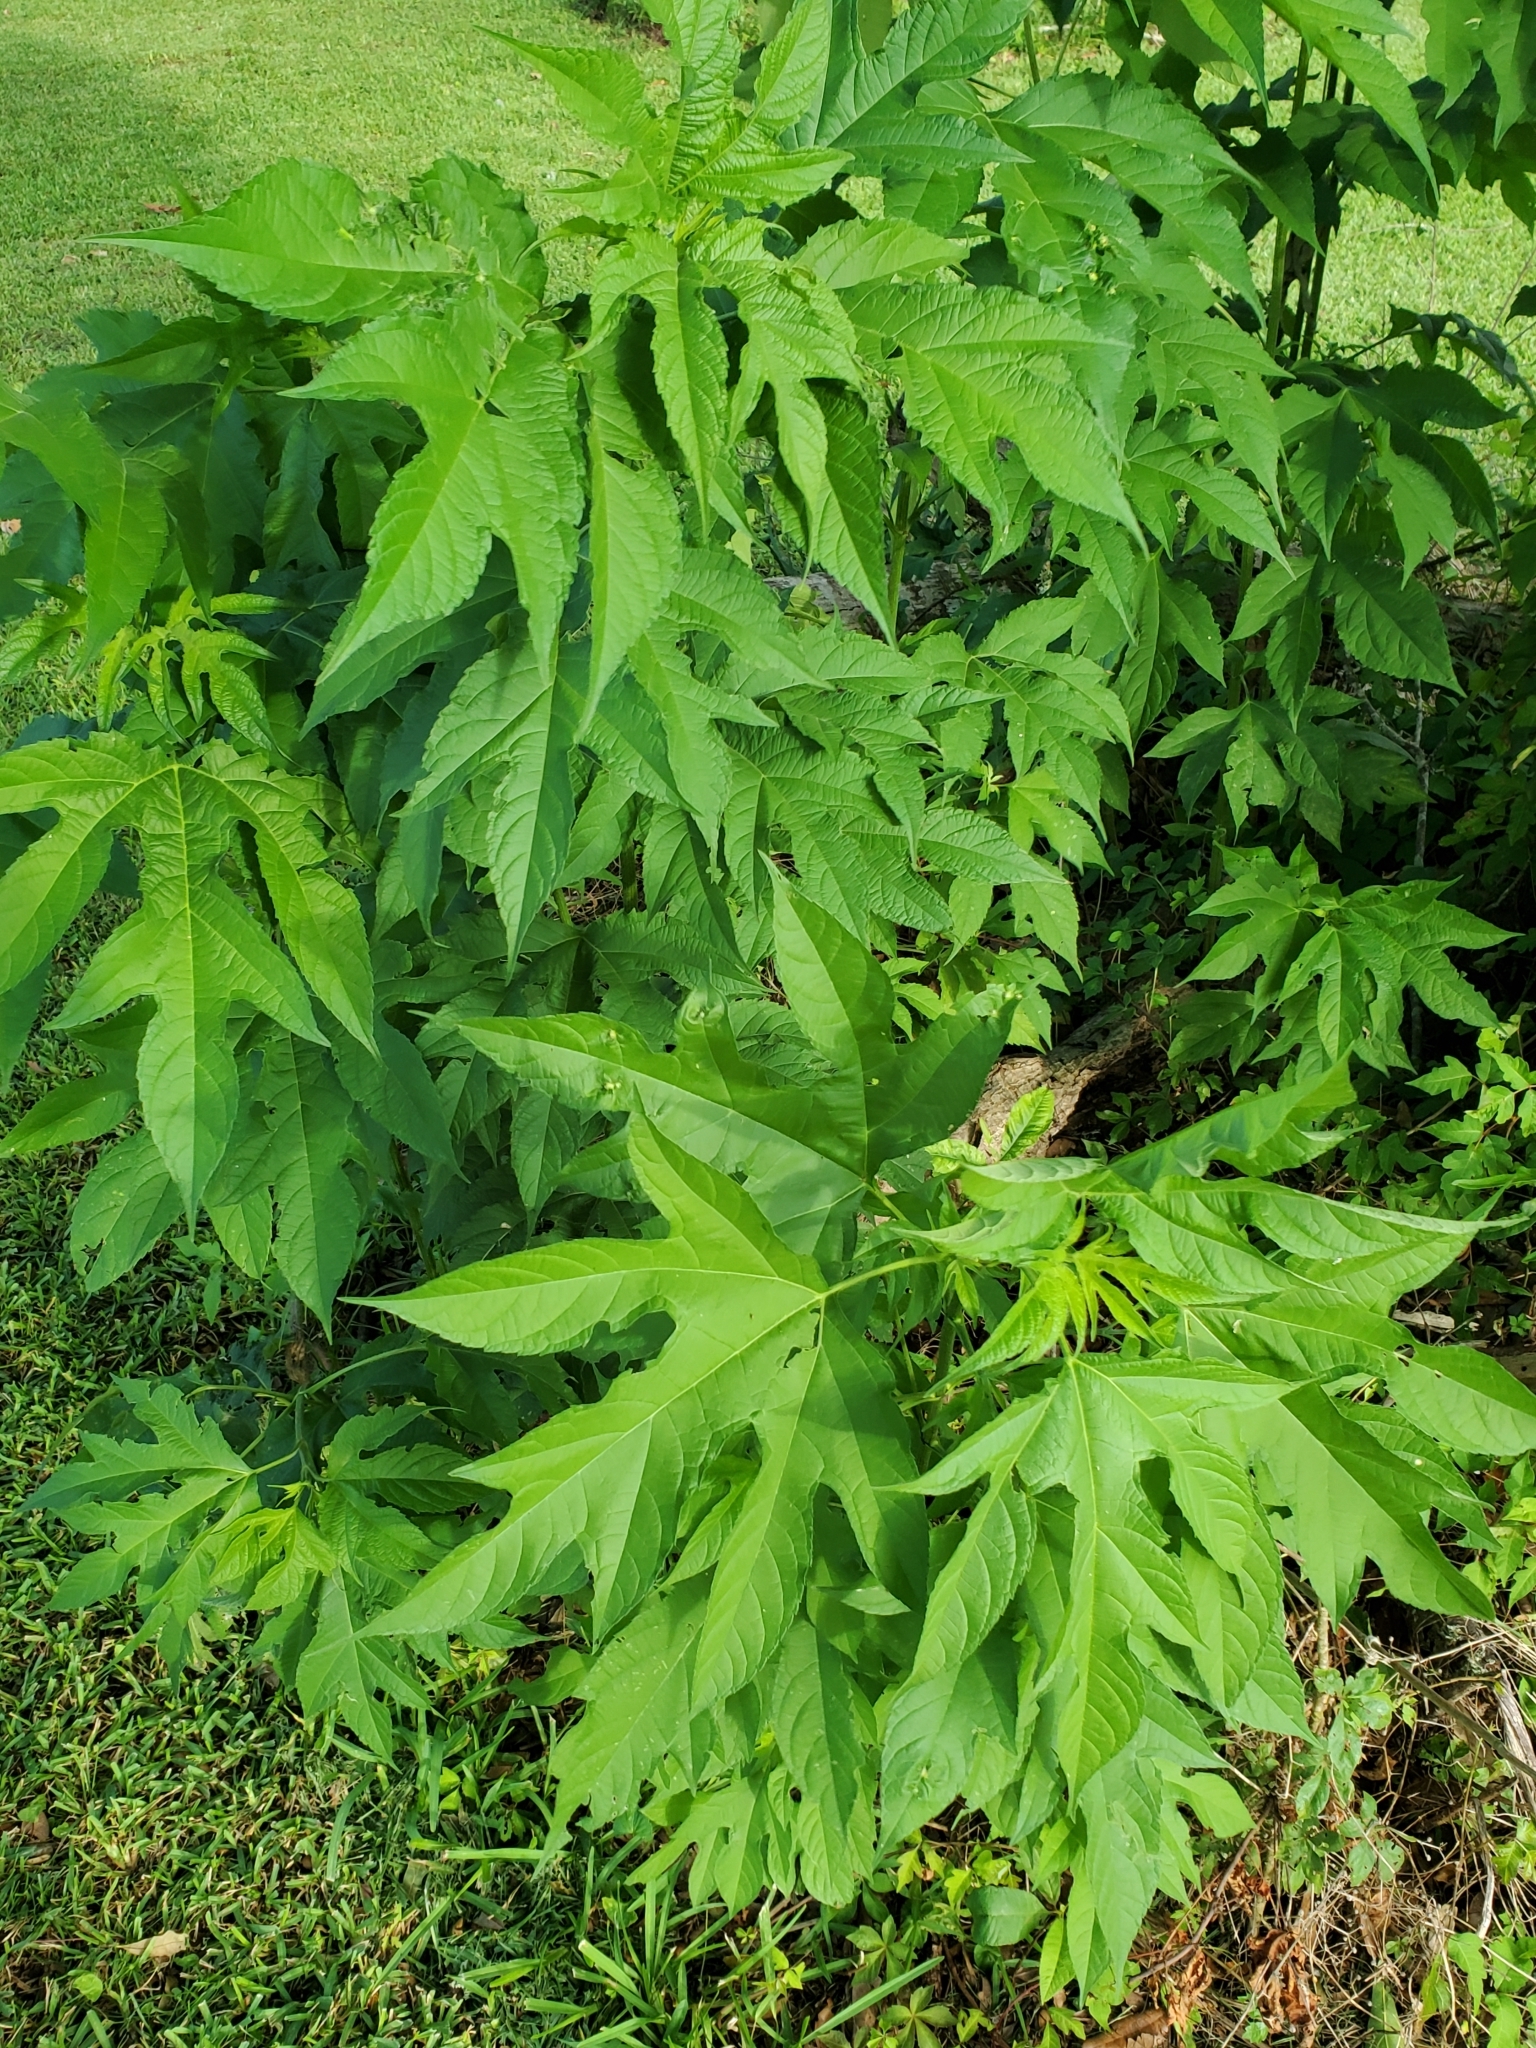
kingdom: Plantae
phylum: Tracheophyta
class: Magnoliopsida
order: Asterales
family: Asteraceae
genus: Ambrosia
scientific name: Ambrosia trifida
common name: Giant ragweed
